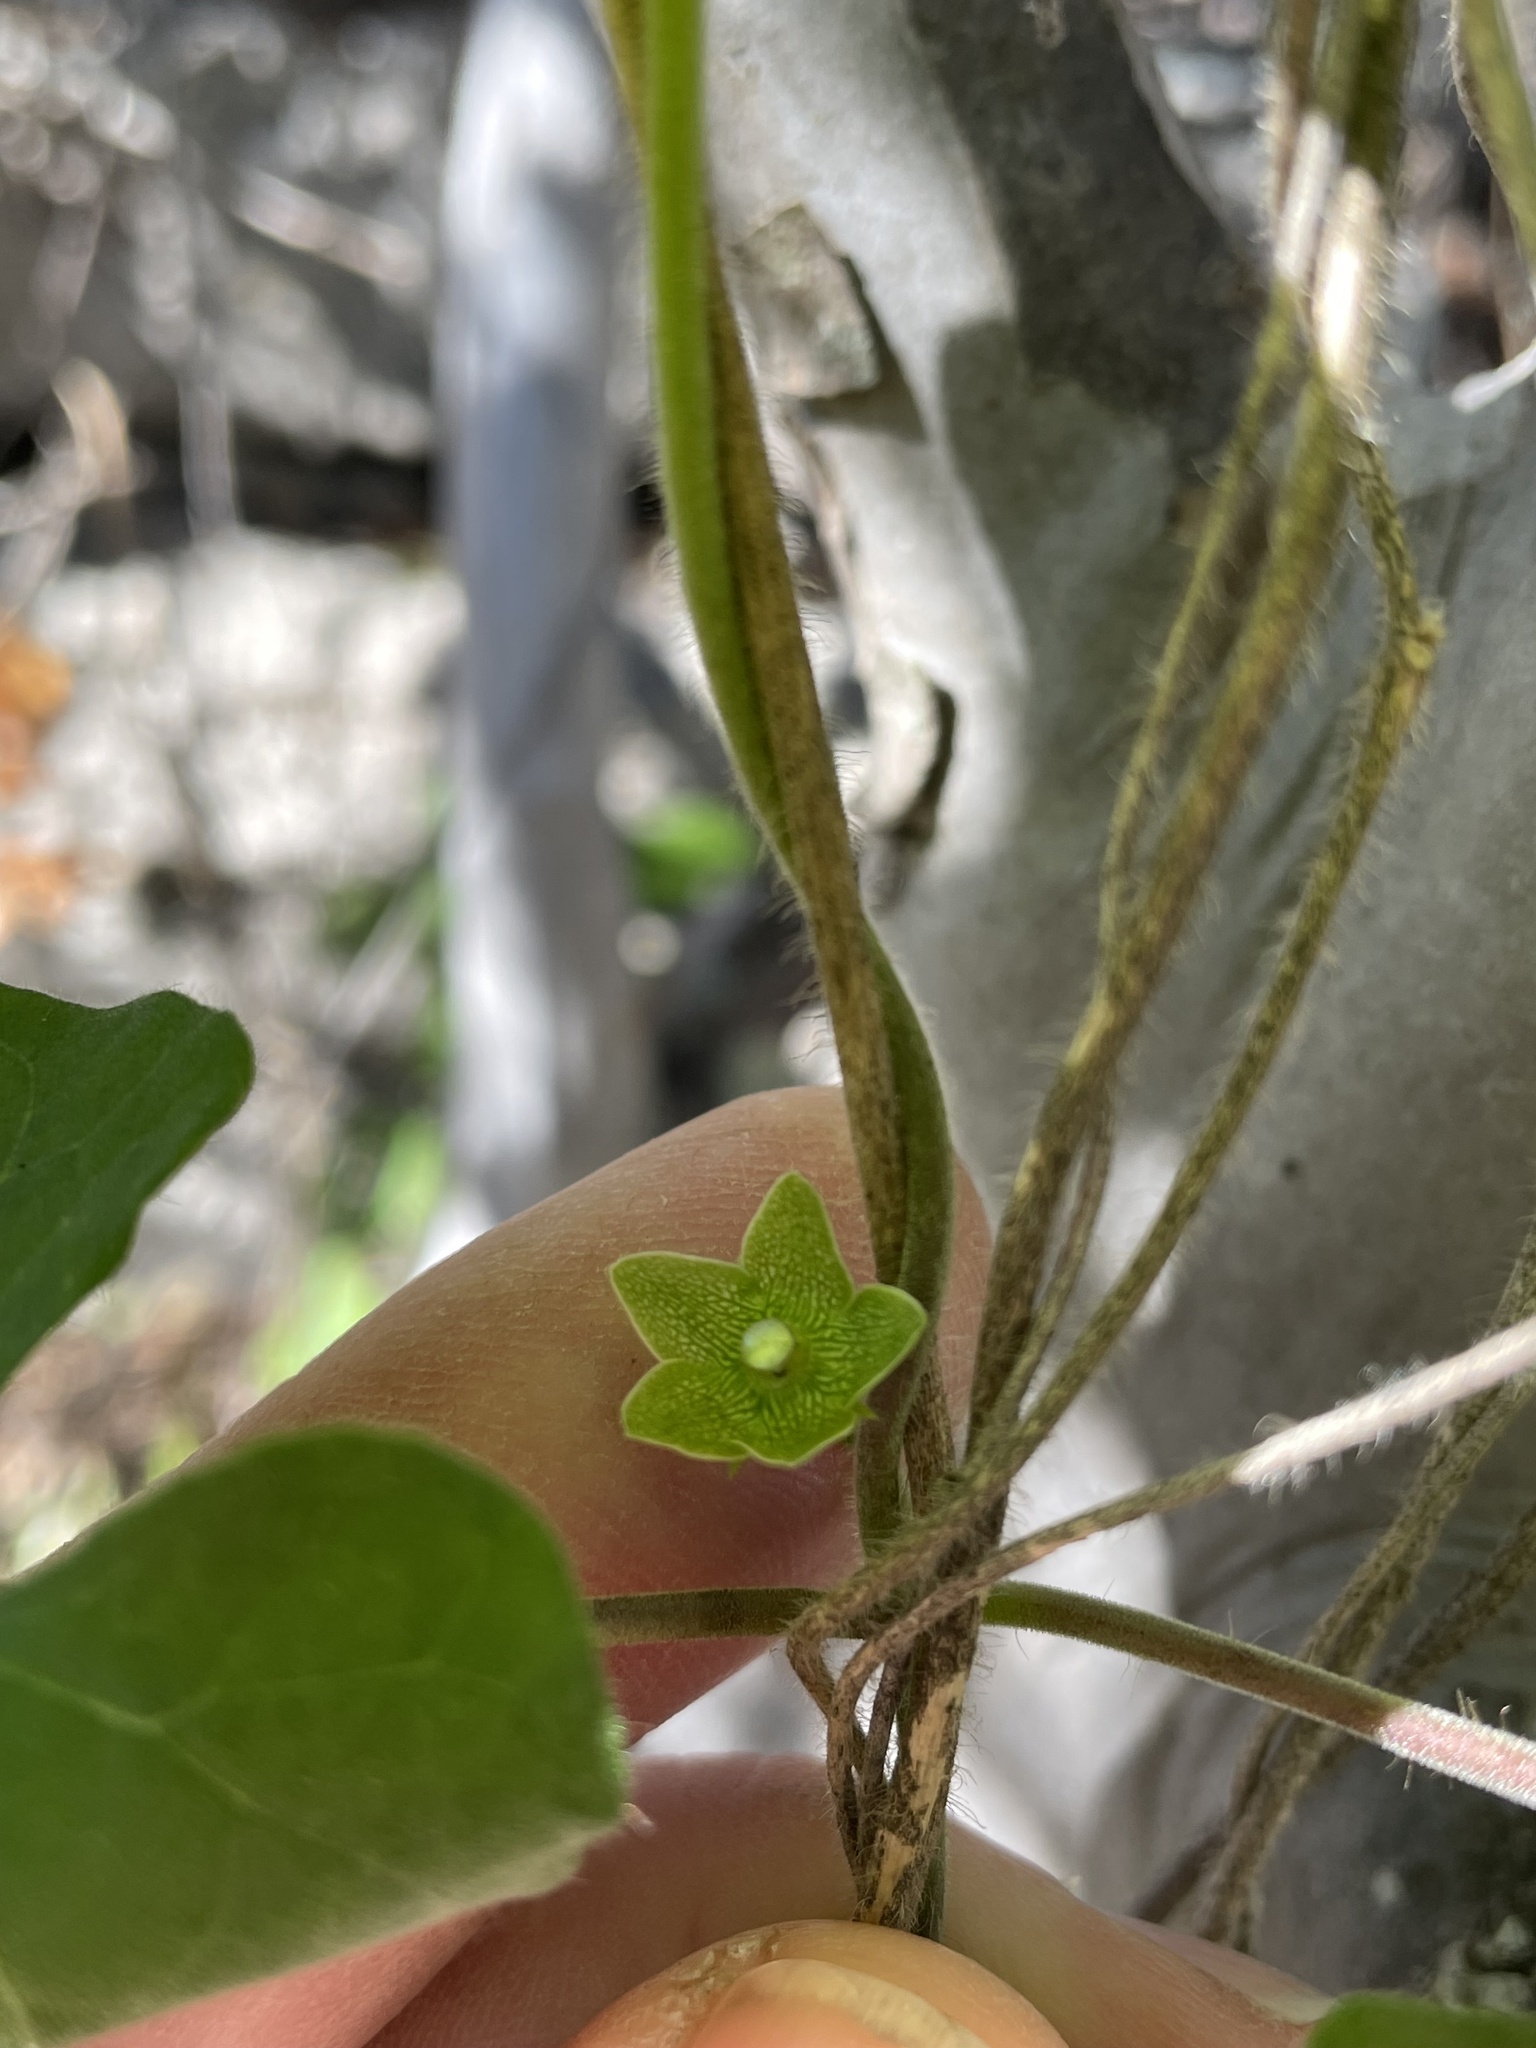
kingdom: Plantae
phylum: Tracheophyta
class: Magnoliopsida
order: Gentianales
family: Apocynaceae
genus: Dictyanthus
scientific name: Dictyanthus reticulatus
